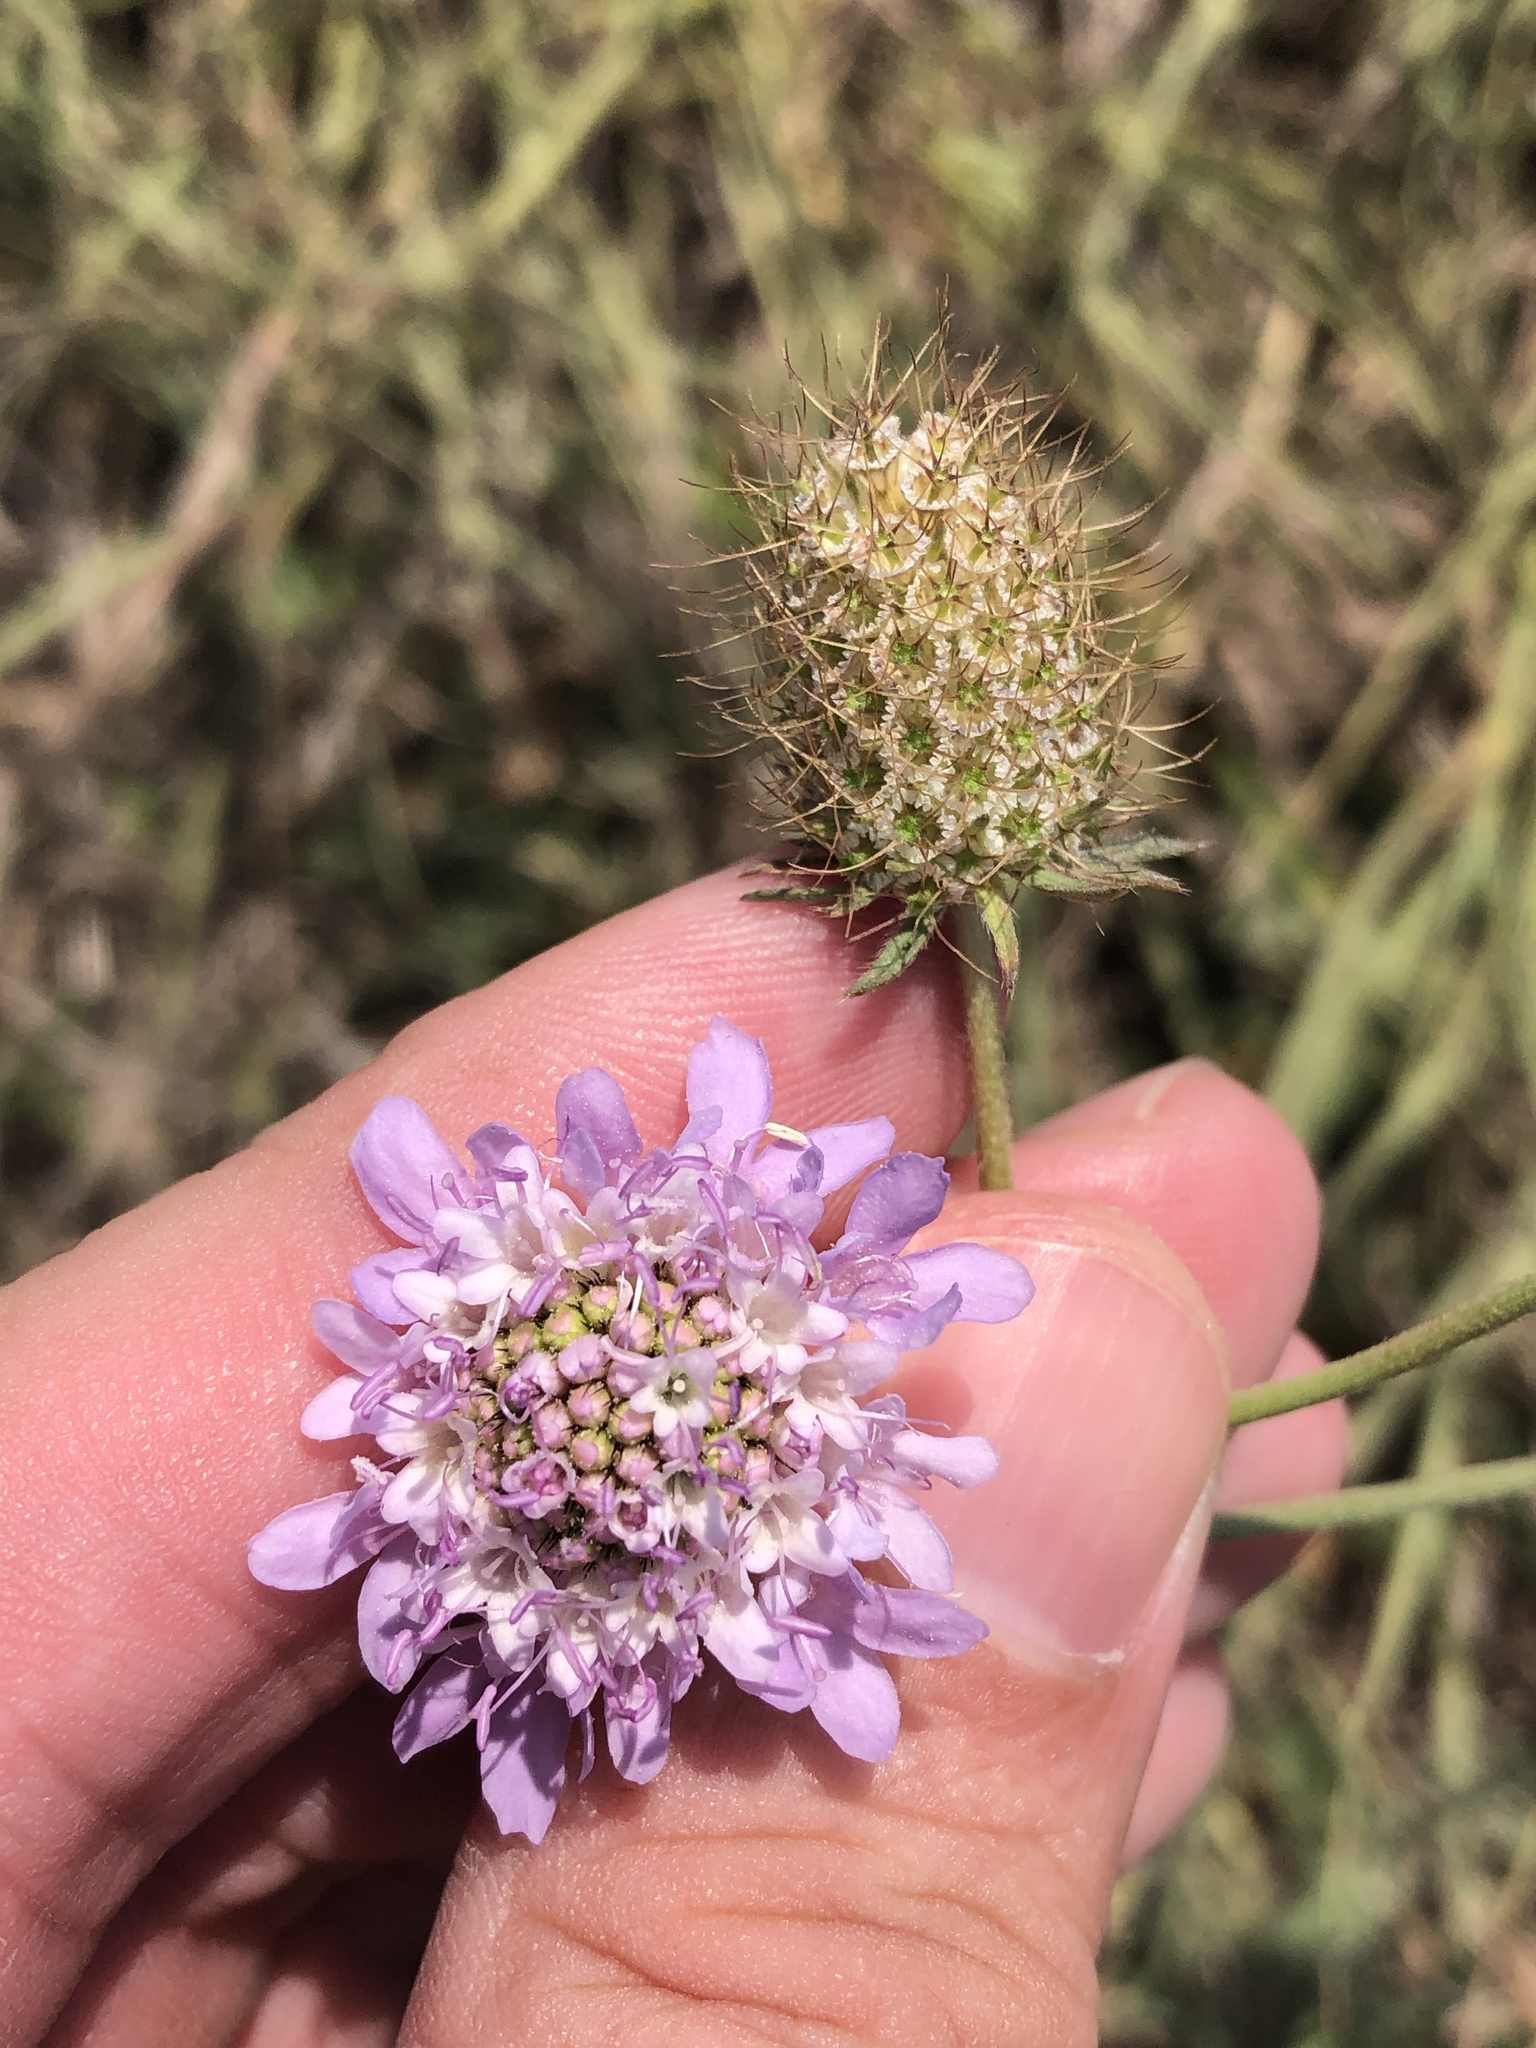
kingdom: Plantae
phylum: Tracheophyta
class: Magnoliopsida
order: Dipsacales
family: Caprifoliaceae
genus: Sixalix
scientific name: Sixalix atropurpurea
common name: Sweet scabious
